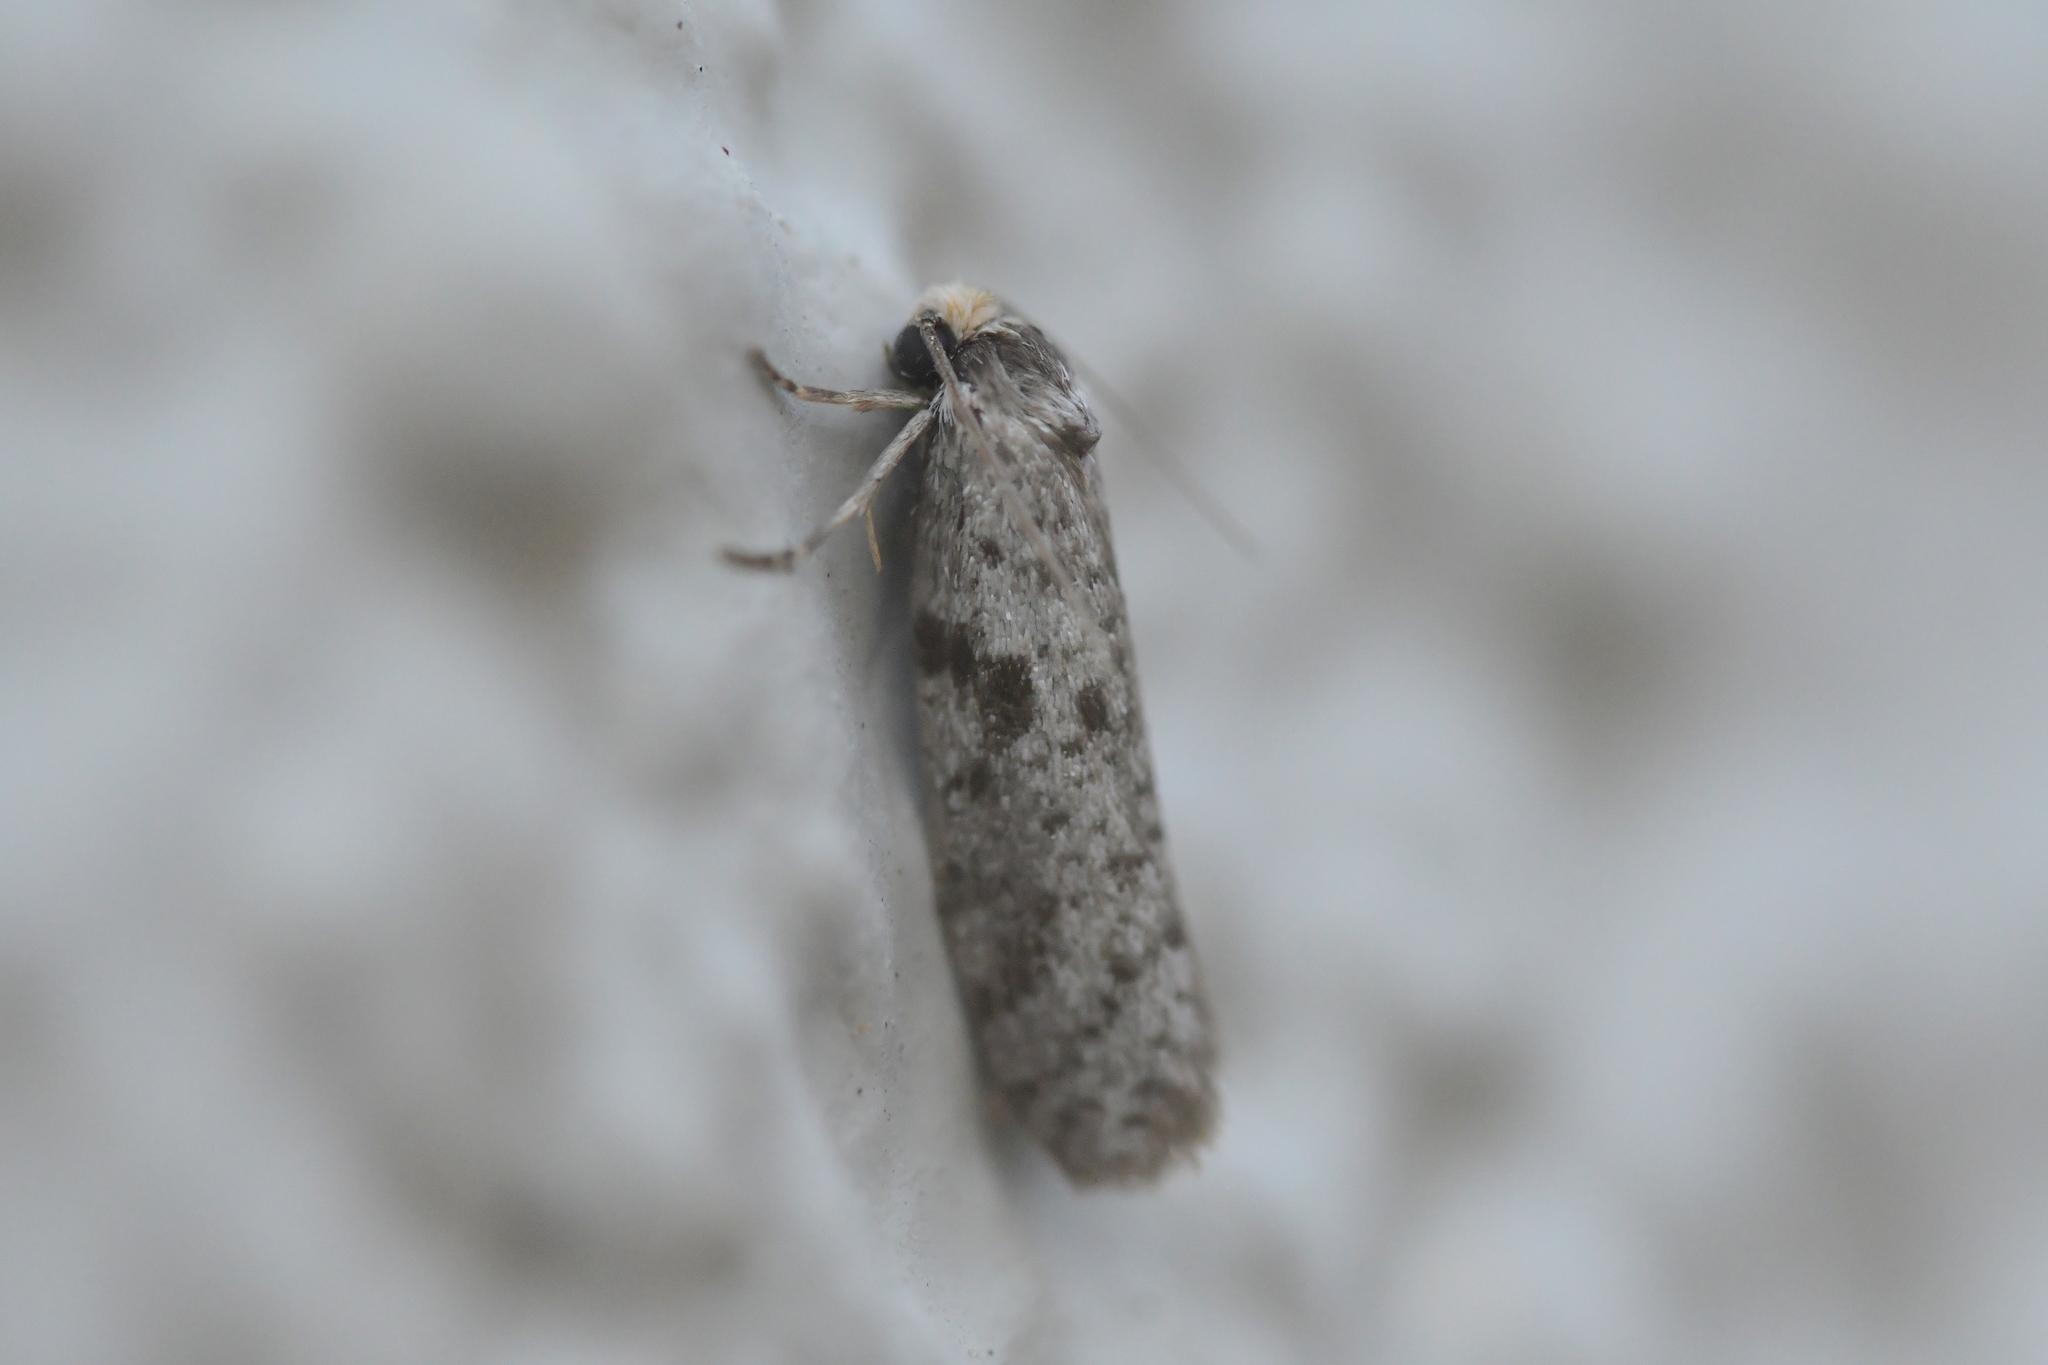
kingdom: Animalia
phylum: Arthropoda
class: Insecta
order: Lepidoptera
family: Psychidae
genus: Lepidoscia
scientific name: Lepidoscia protorna
